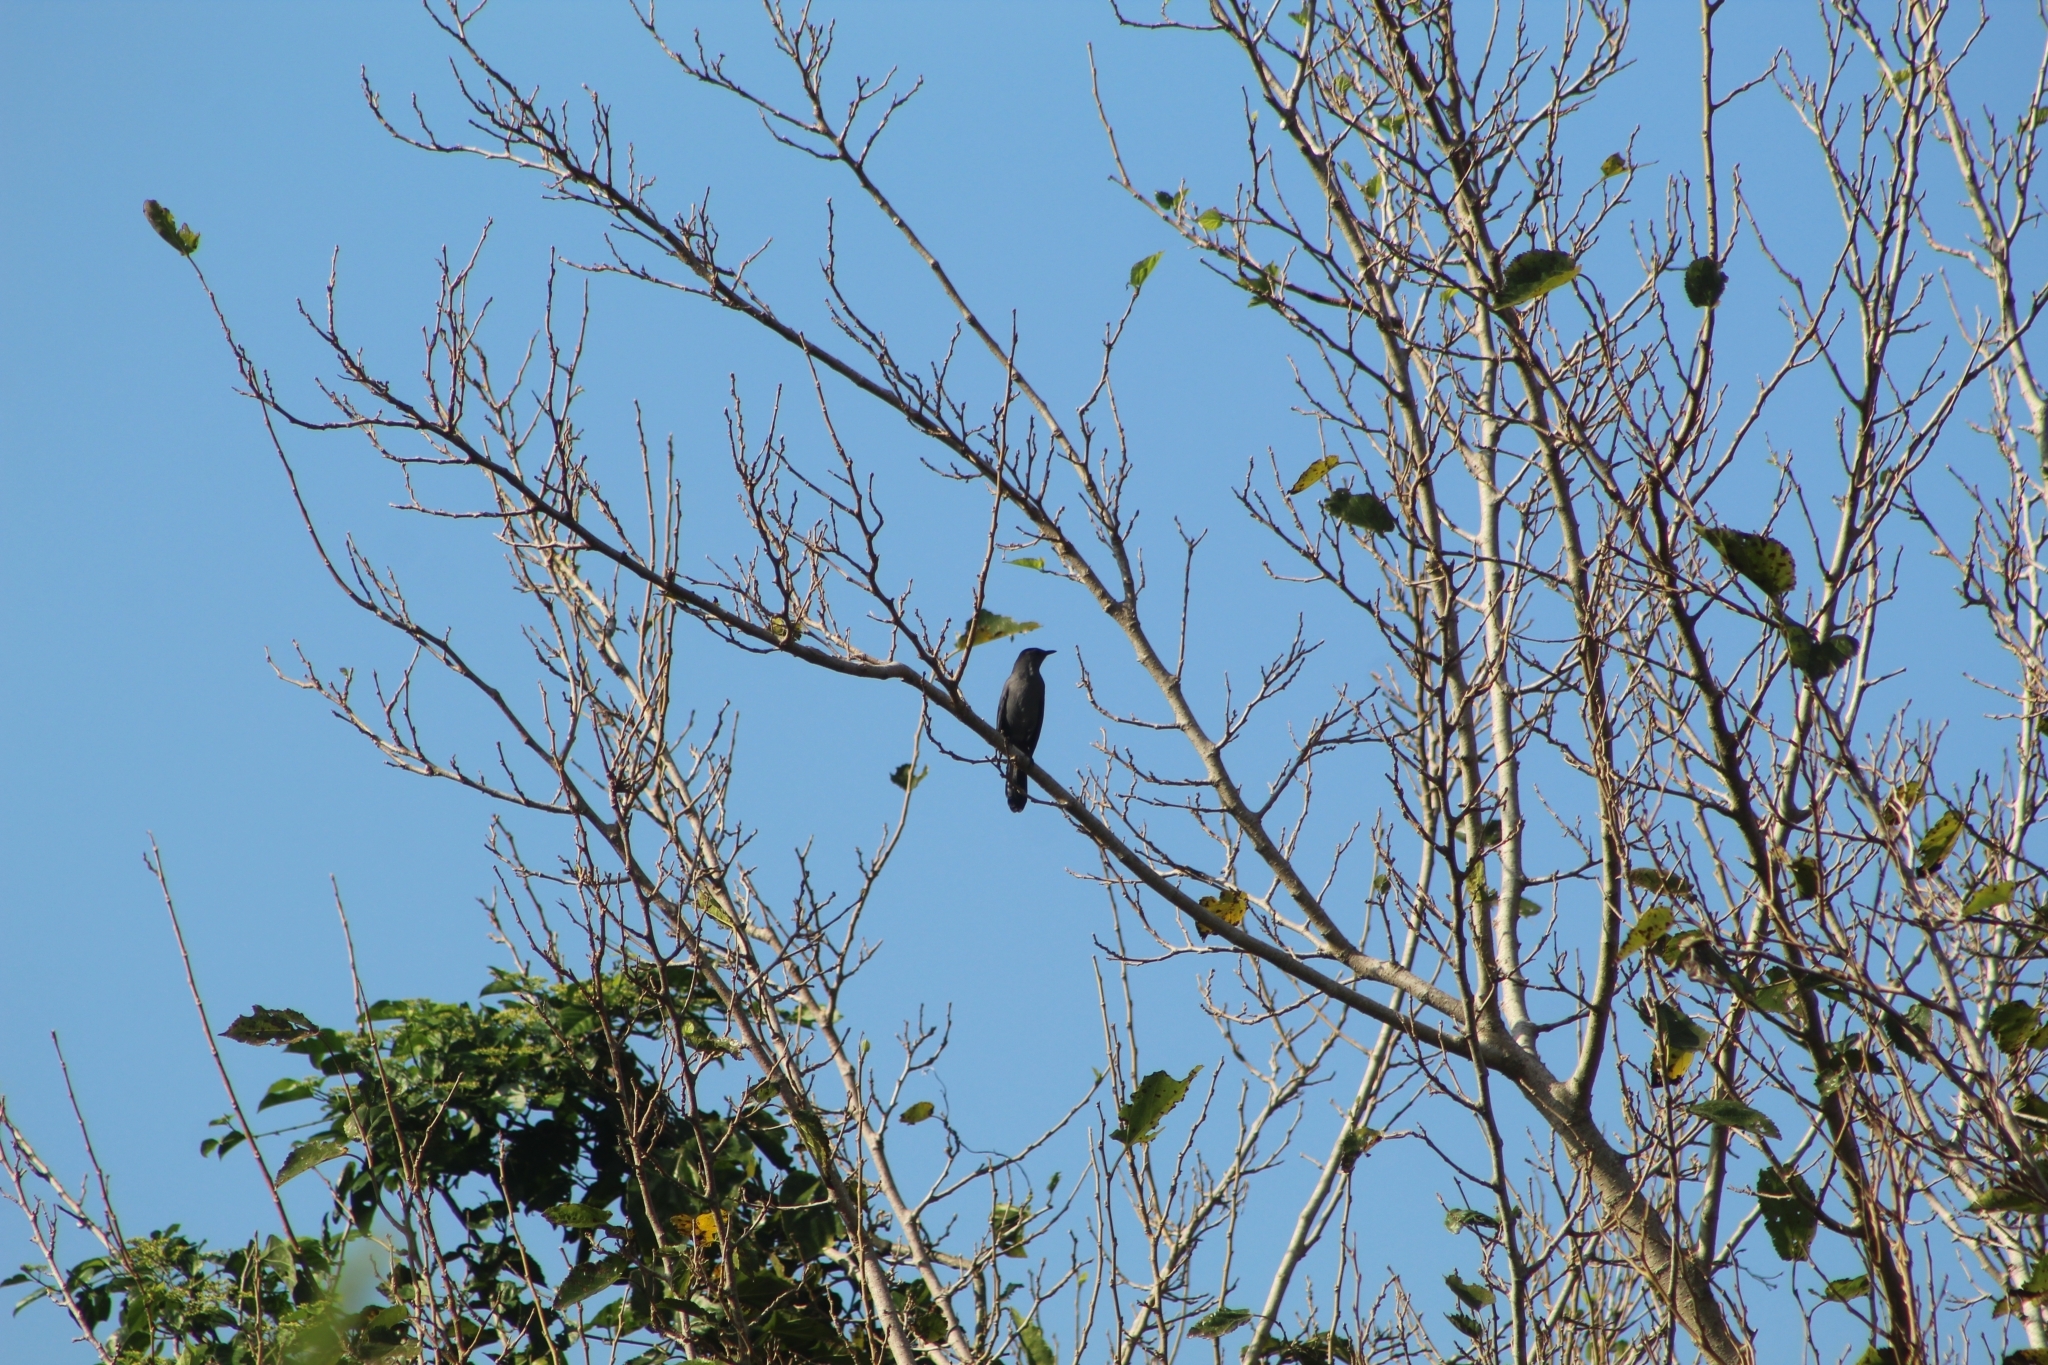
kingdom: Animalia
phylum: Chordata
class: Aves
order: Passeriformes
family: Mimidae
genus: Dumetella
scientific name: Dumetella carolinensis
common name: Gray catbird
